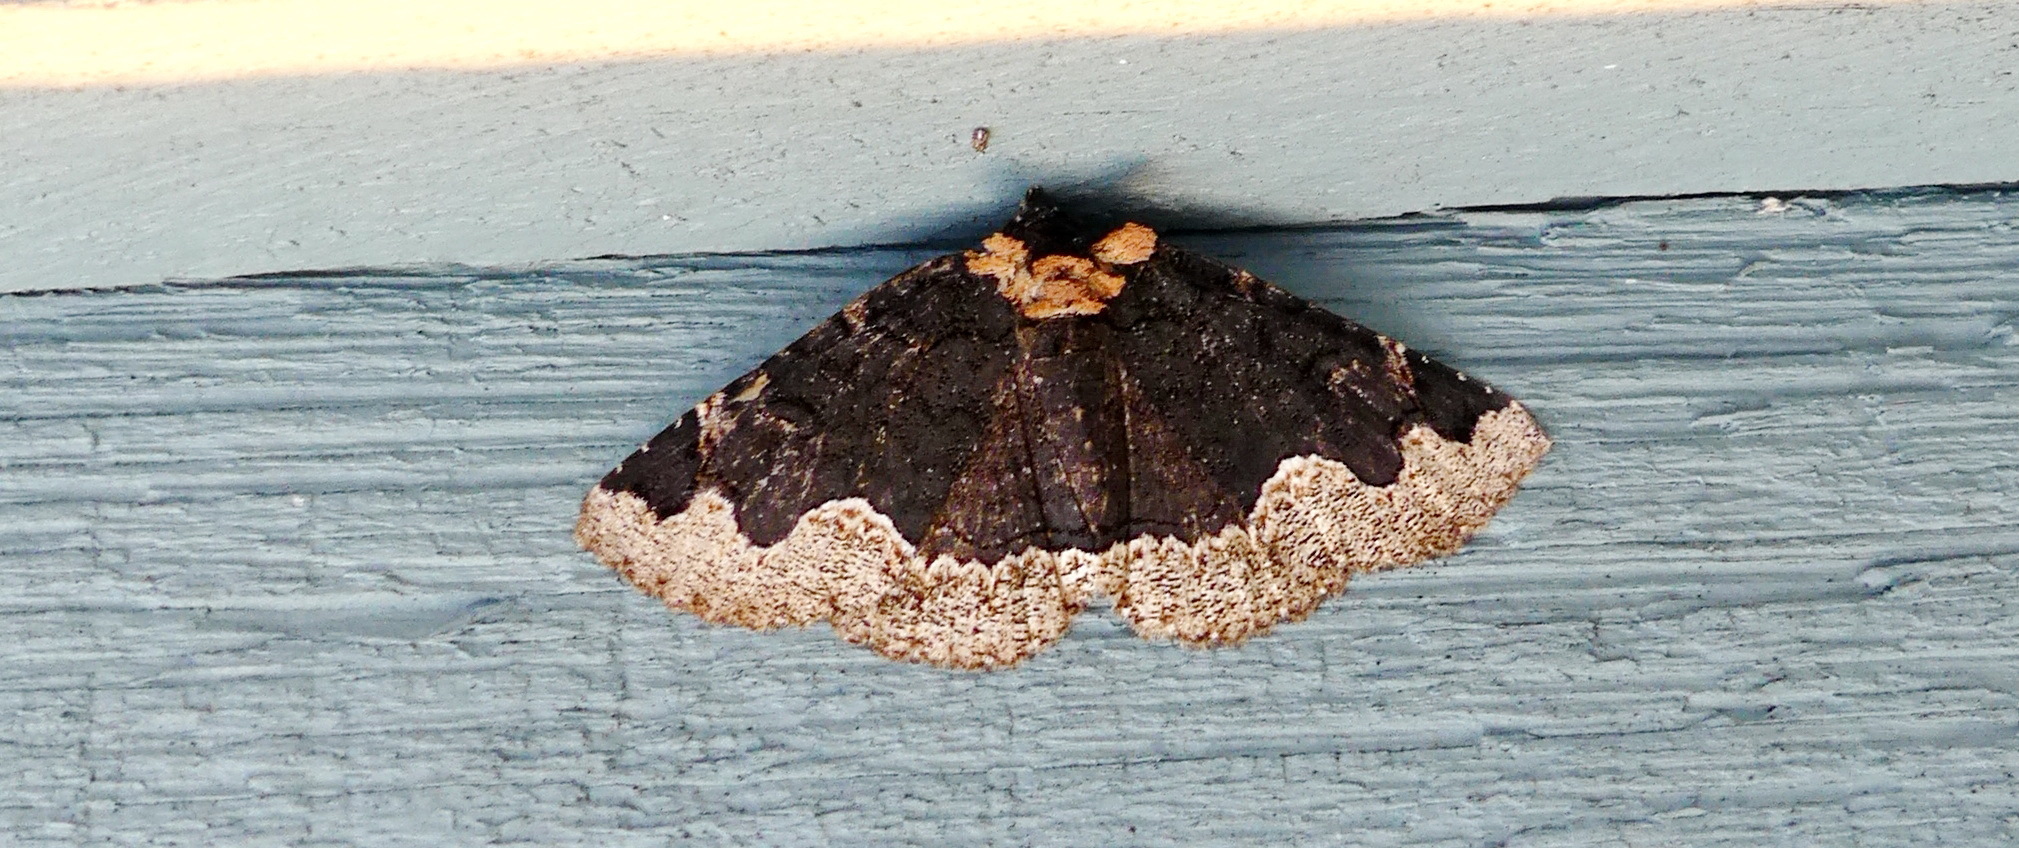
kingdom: Animalia
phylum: Arthropoda
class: Insecta
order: Lepidoptera
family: Erebidae
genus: Zale
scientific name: Zale horrida
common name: Horrid zale moth
